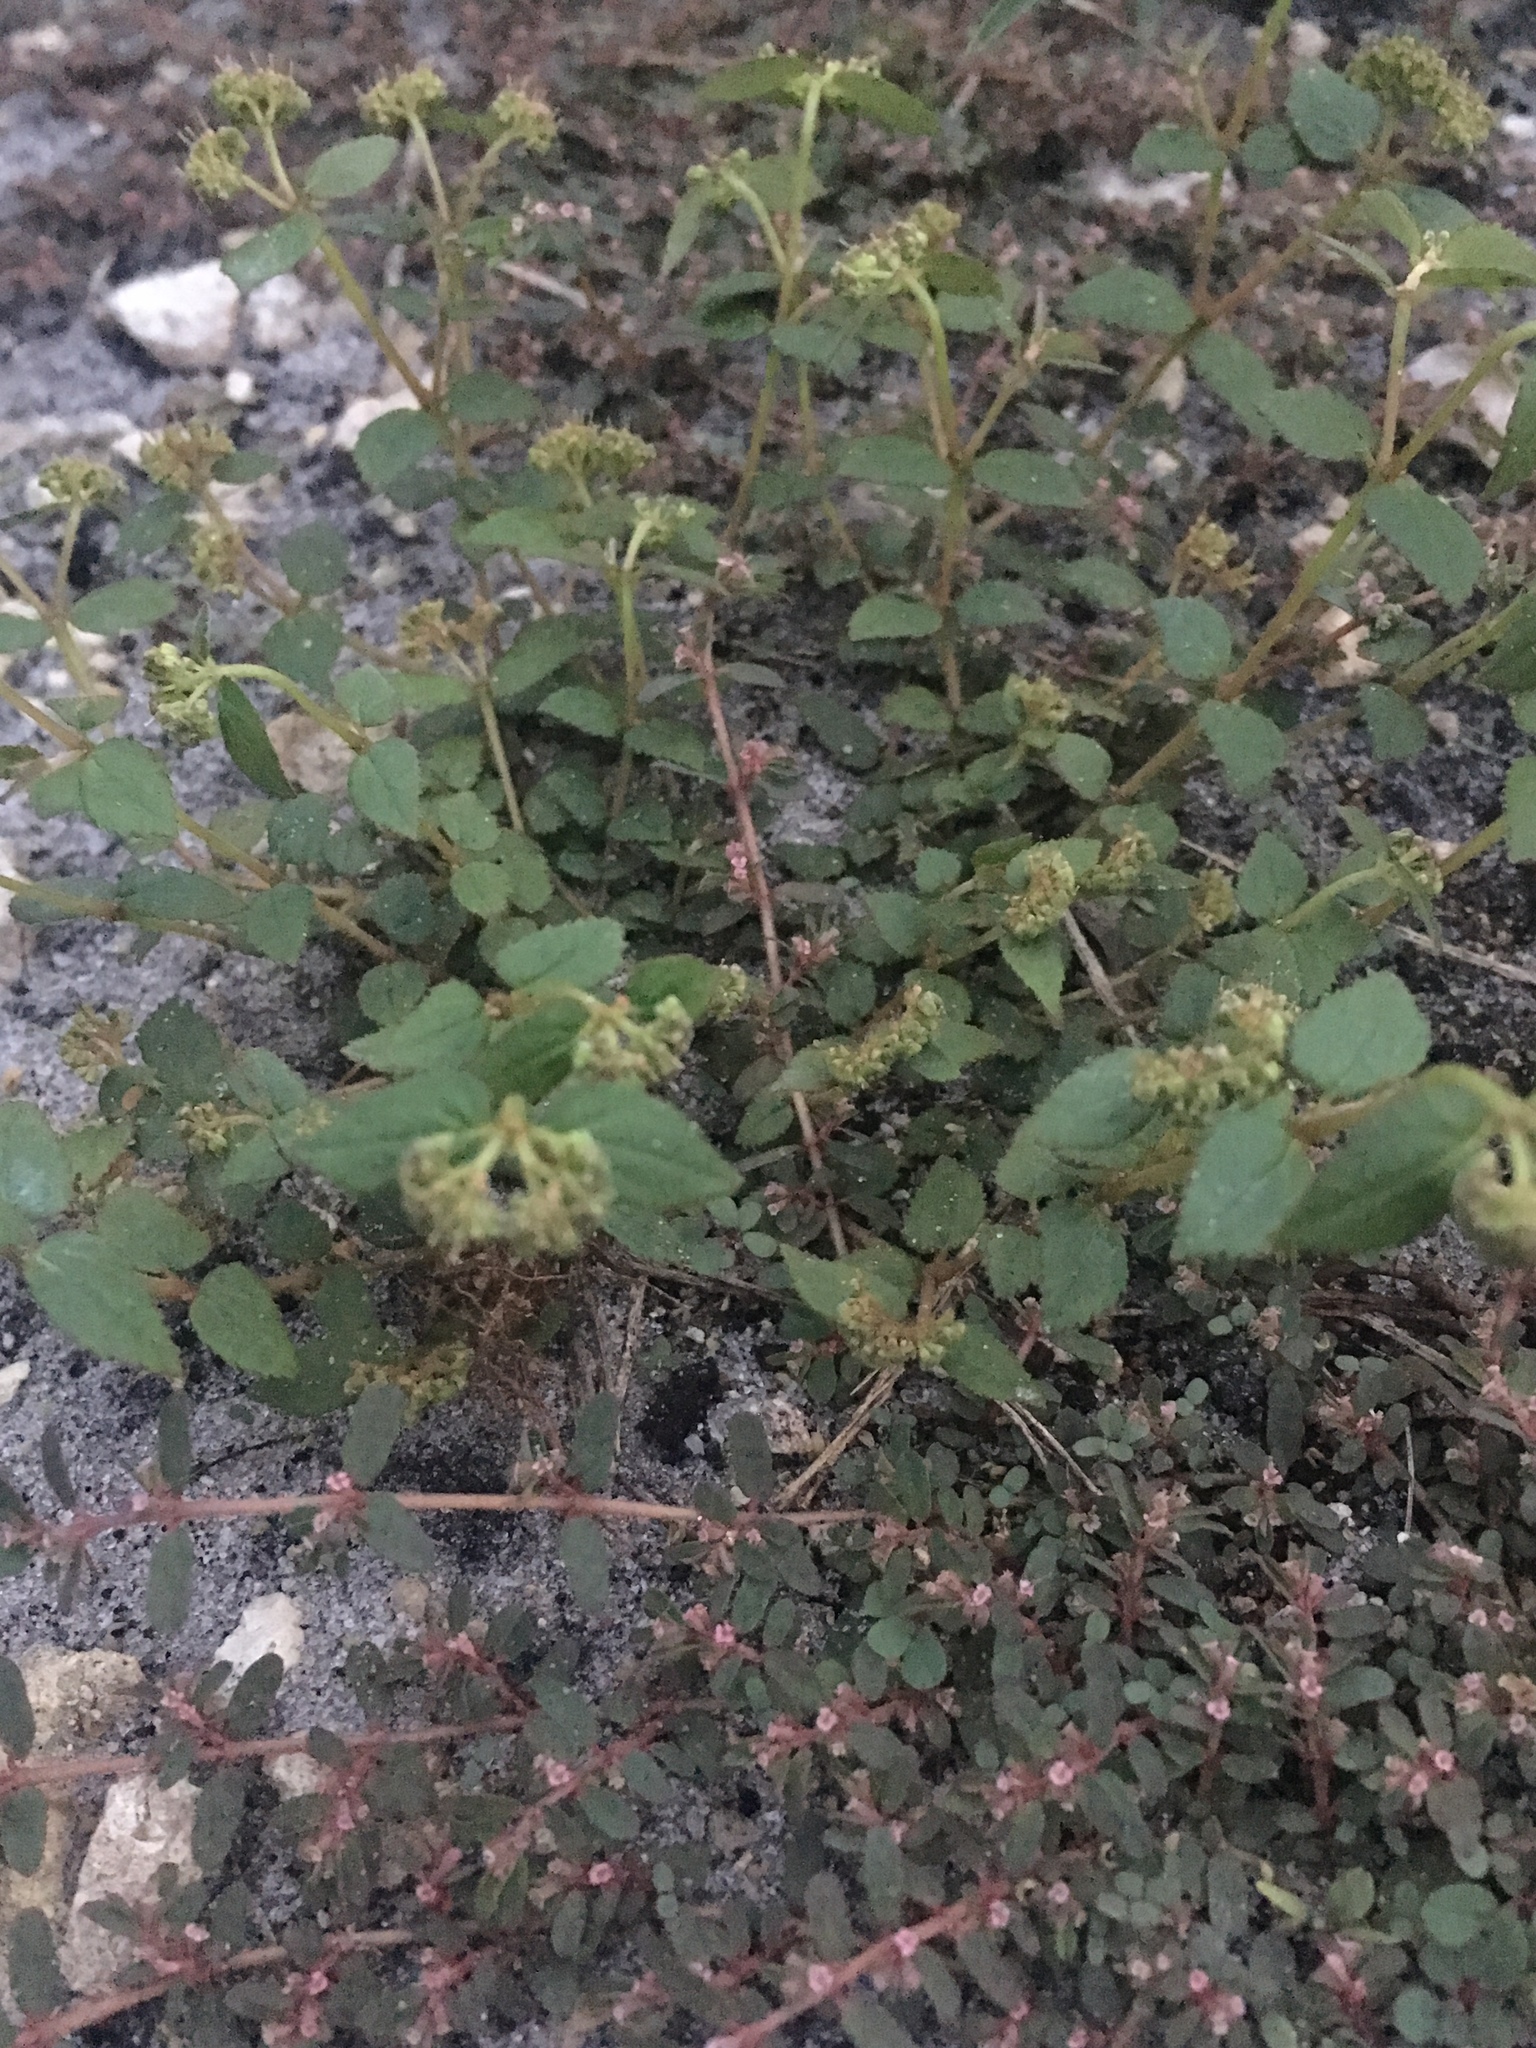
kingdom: Plantae
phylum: Tracheophyta
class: Magnoliopsida
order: Malpighiales
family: Euphorbiaceae
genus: Euphorbia
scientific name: Euphorbia ophthalmica
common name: Florida hammock sandmat
